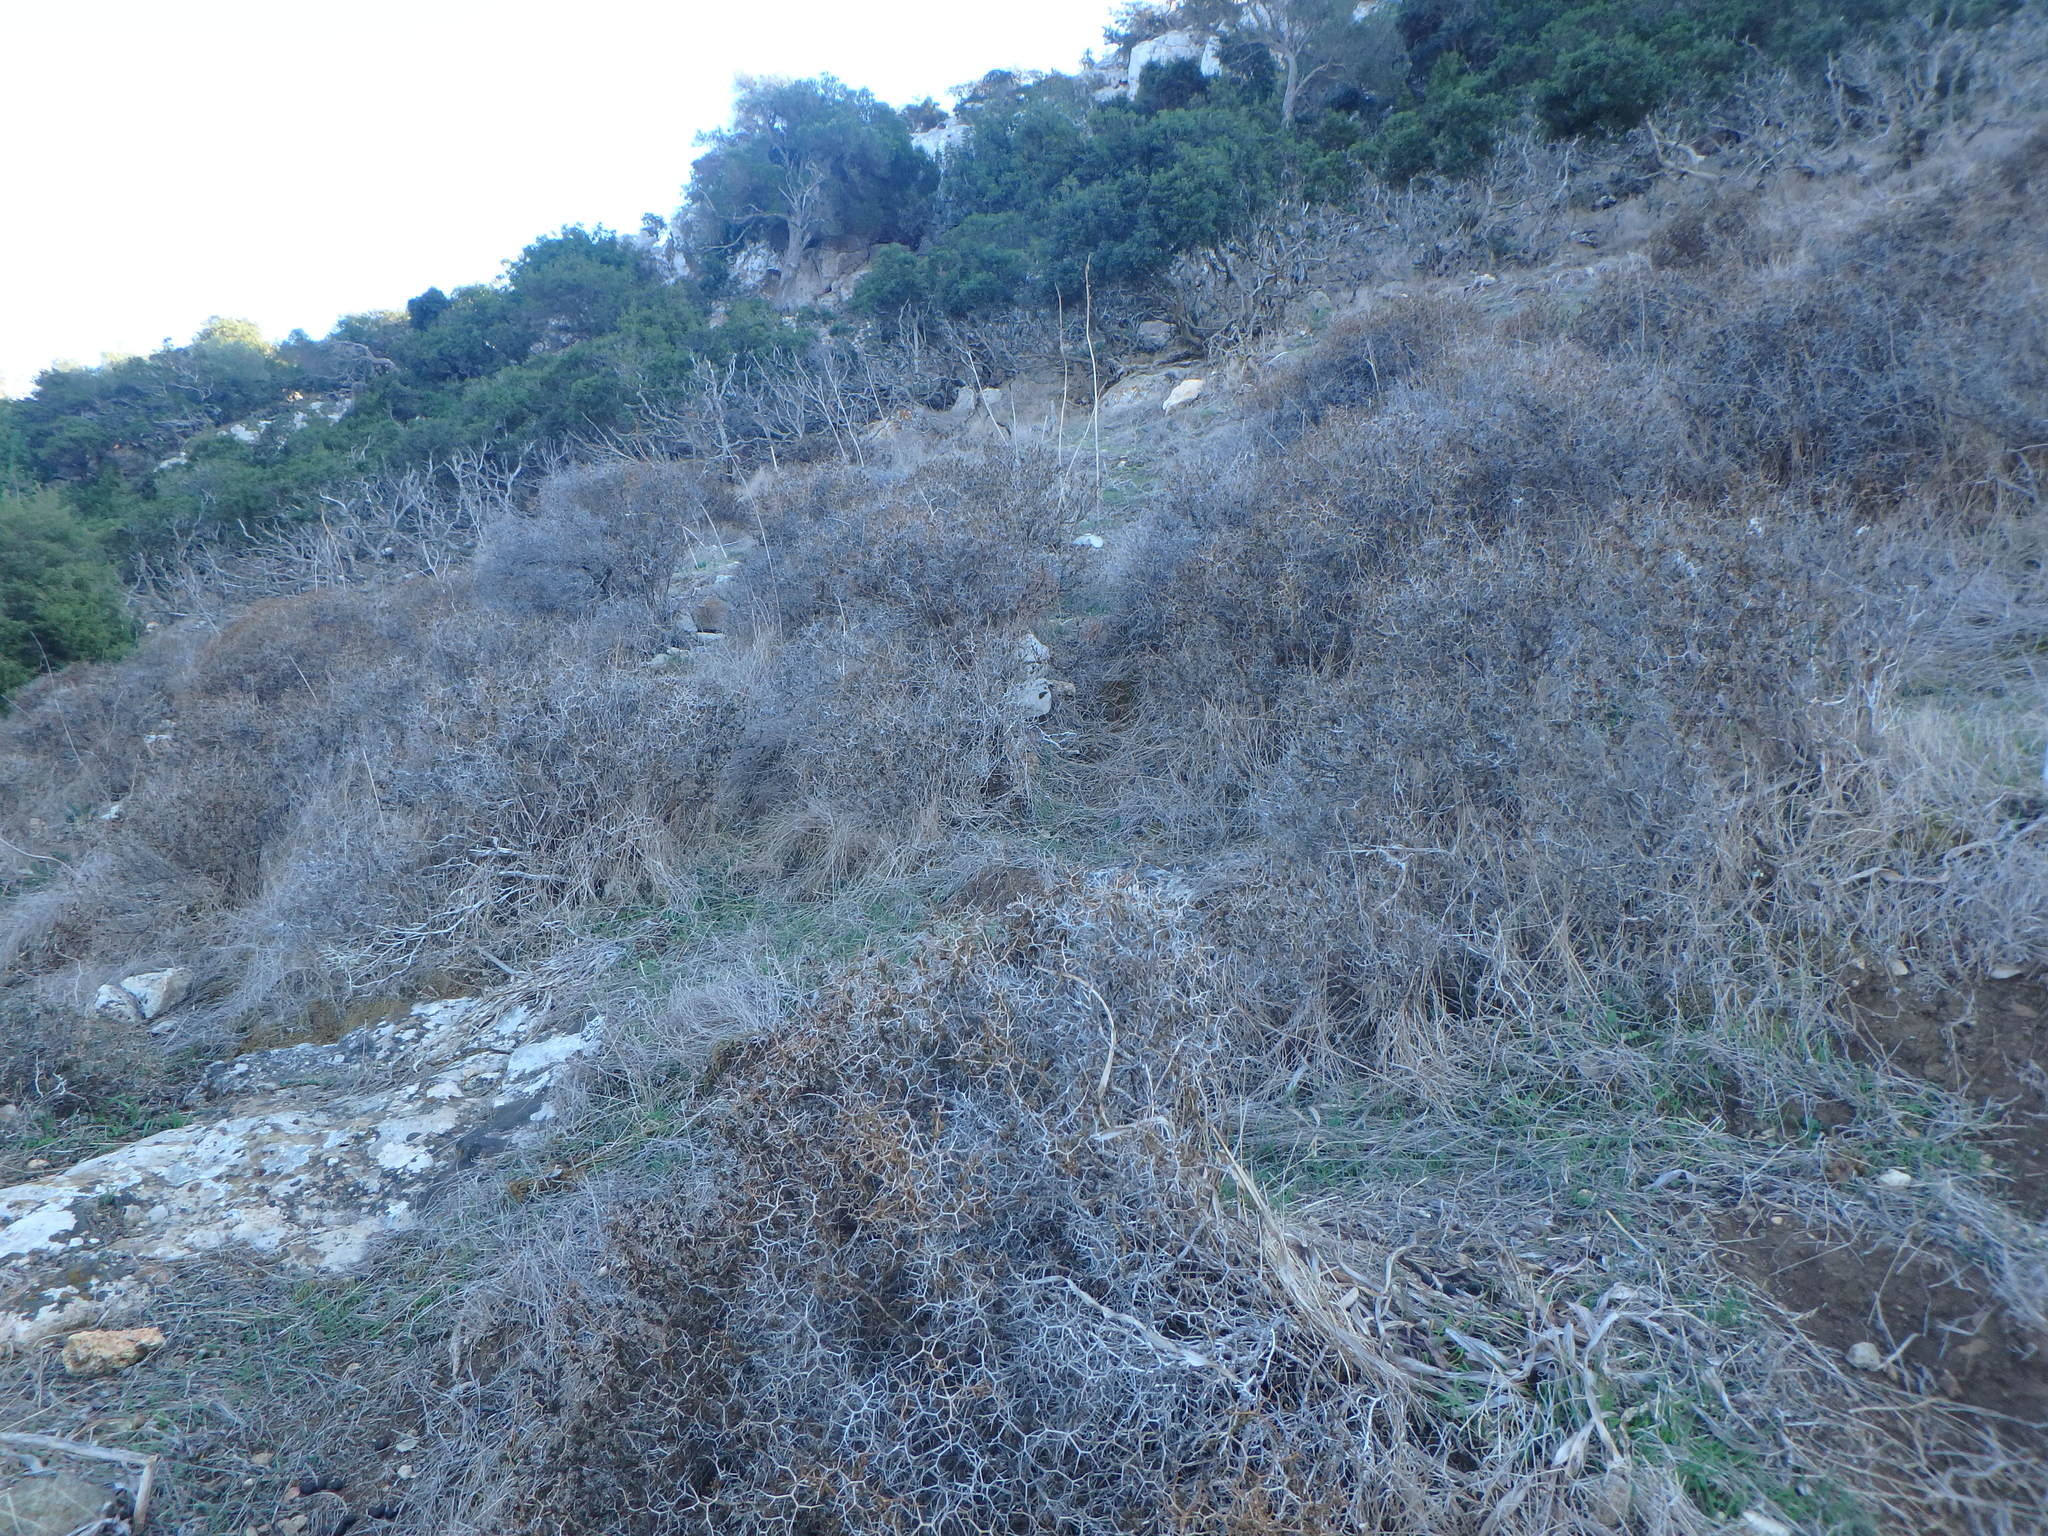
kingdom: Plantae
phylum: Tracheophyta
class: Magnoliopsida
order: Rosales
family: Rosaceae
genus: Sarcopoterium
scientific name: Sarcopoterium spinosum
